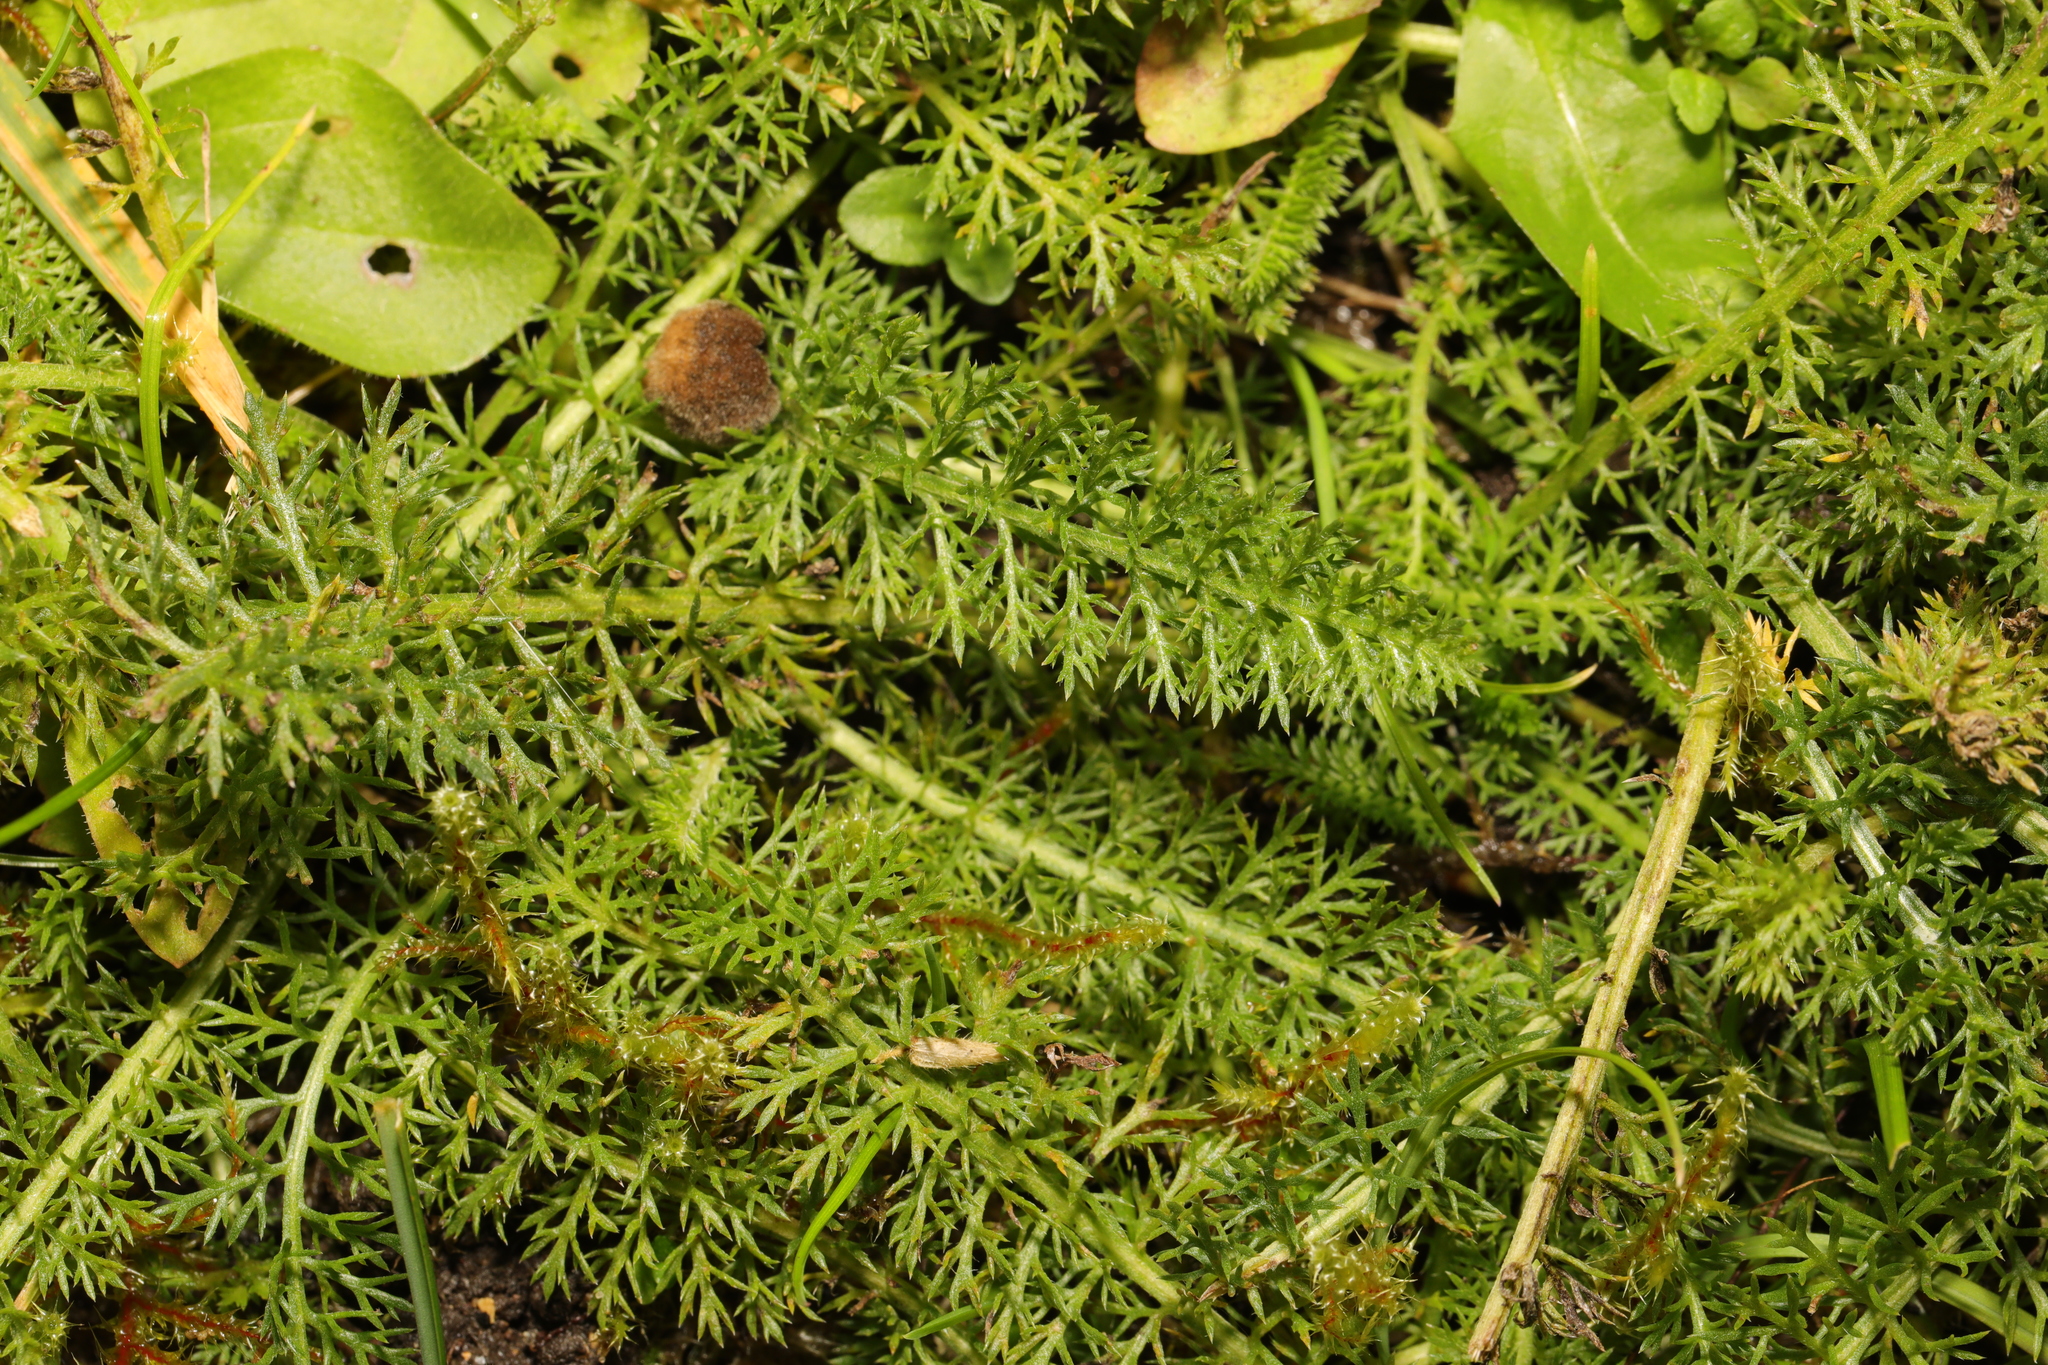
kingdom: Plantae
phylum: Tracheophyta
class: Magnoliopsida
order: Asterales
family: Asteraceae
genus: Achillea
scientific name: Achillea millefolium
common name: Yarrow
